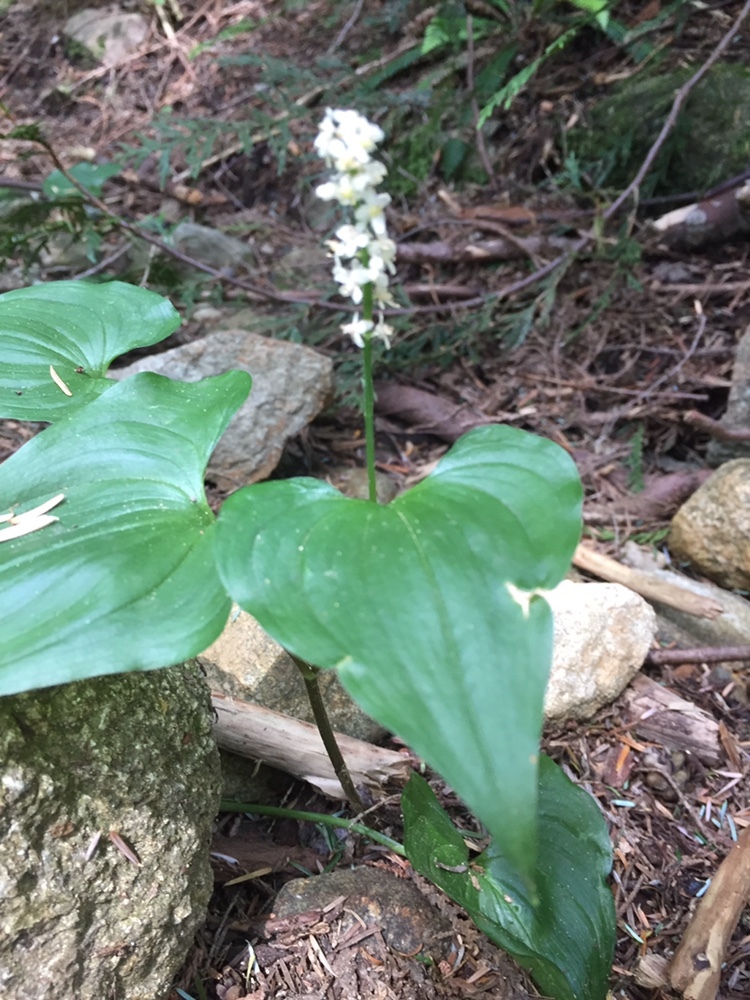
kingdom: Plantae
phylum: Tracheophyta
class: Liliopsida
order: Asparagales
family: Asparagaceae
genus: Maianthemum
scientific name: Maianthemum dilatatum
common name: False lily-of-the-valley
